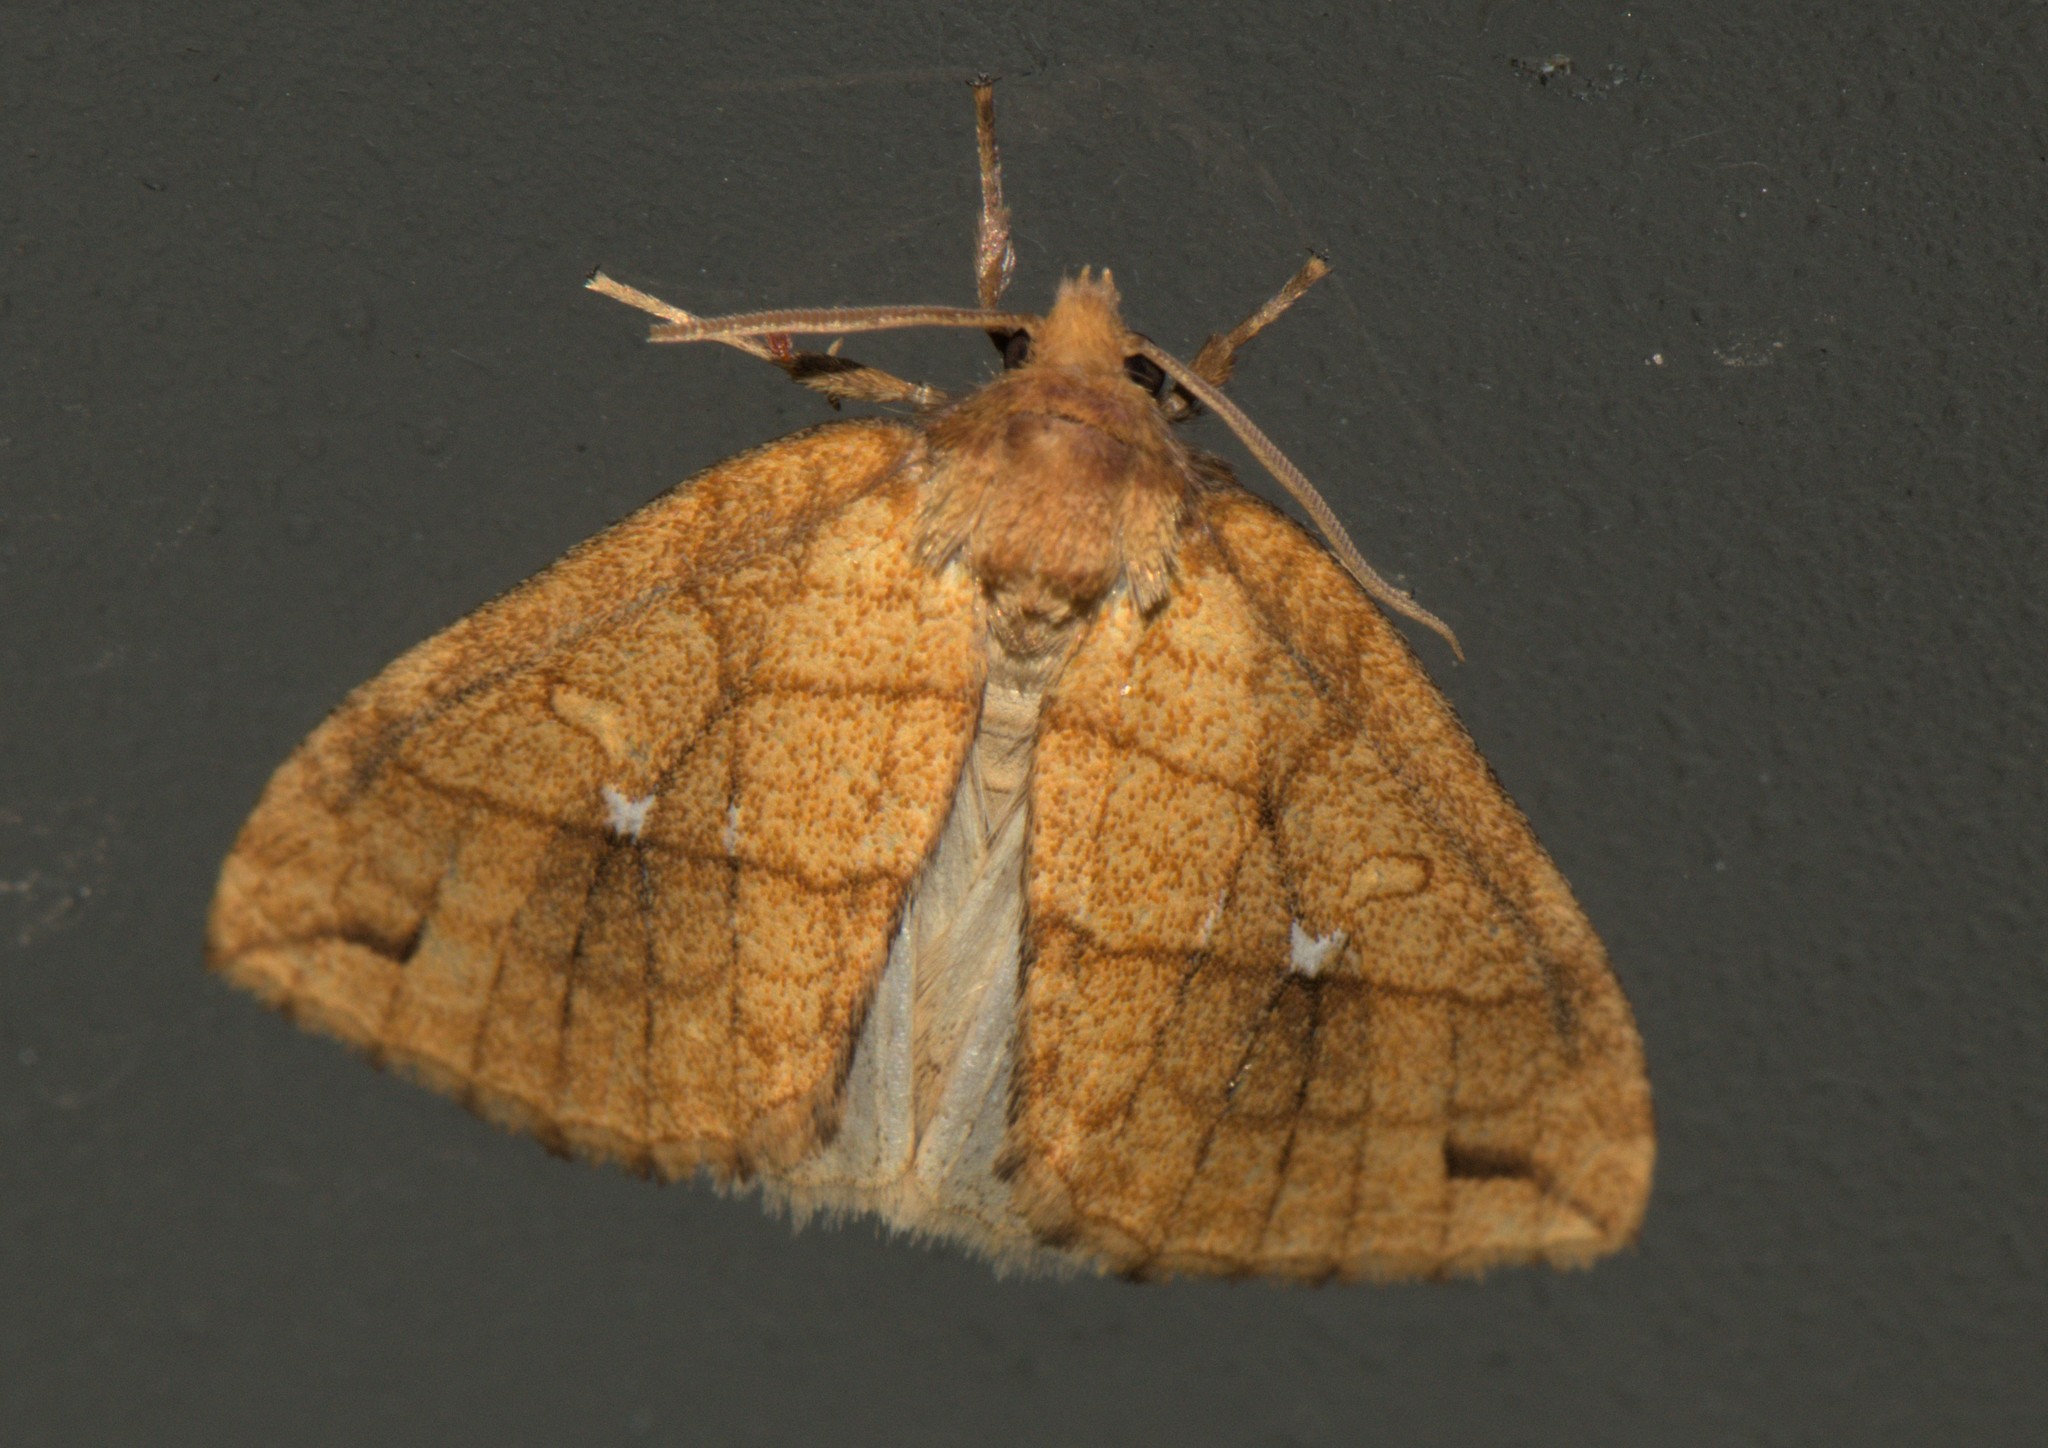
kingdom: Animalia
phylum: Arthropoda
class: Insecta
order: Lepidoptera
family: Noctuidae
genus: Xanthia
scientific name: Xanthia rectilineata
